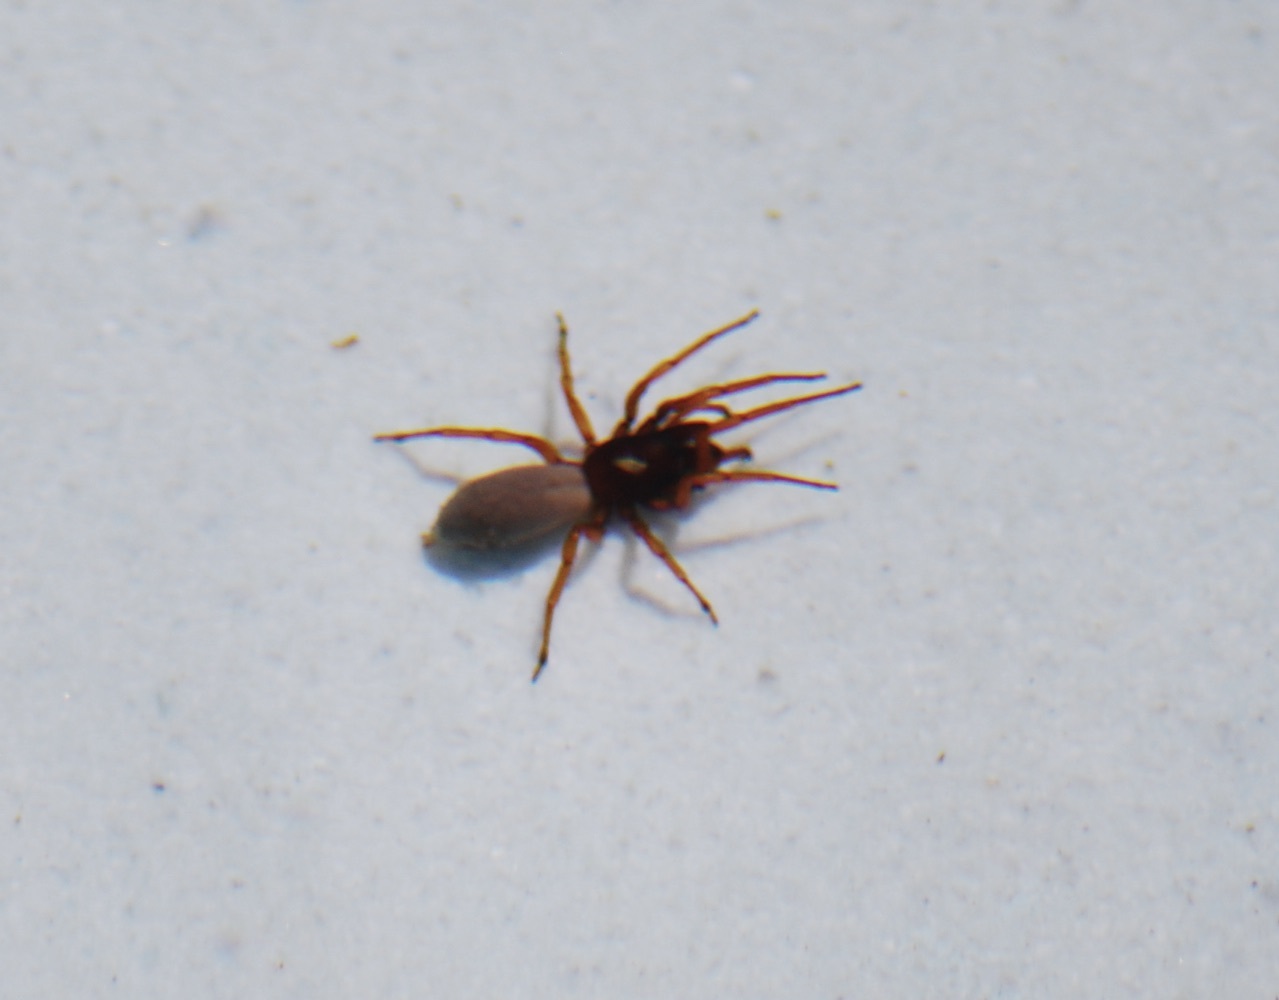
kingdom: Animalia
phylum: Arthropoda
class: Arachnida
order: Araneae
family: Dysderidae
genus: Dysdera
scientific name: Dysdera crocata
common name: Woodlouse spider
